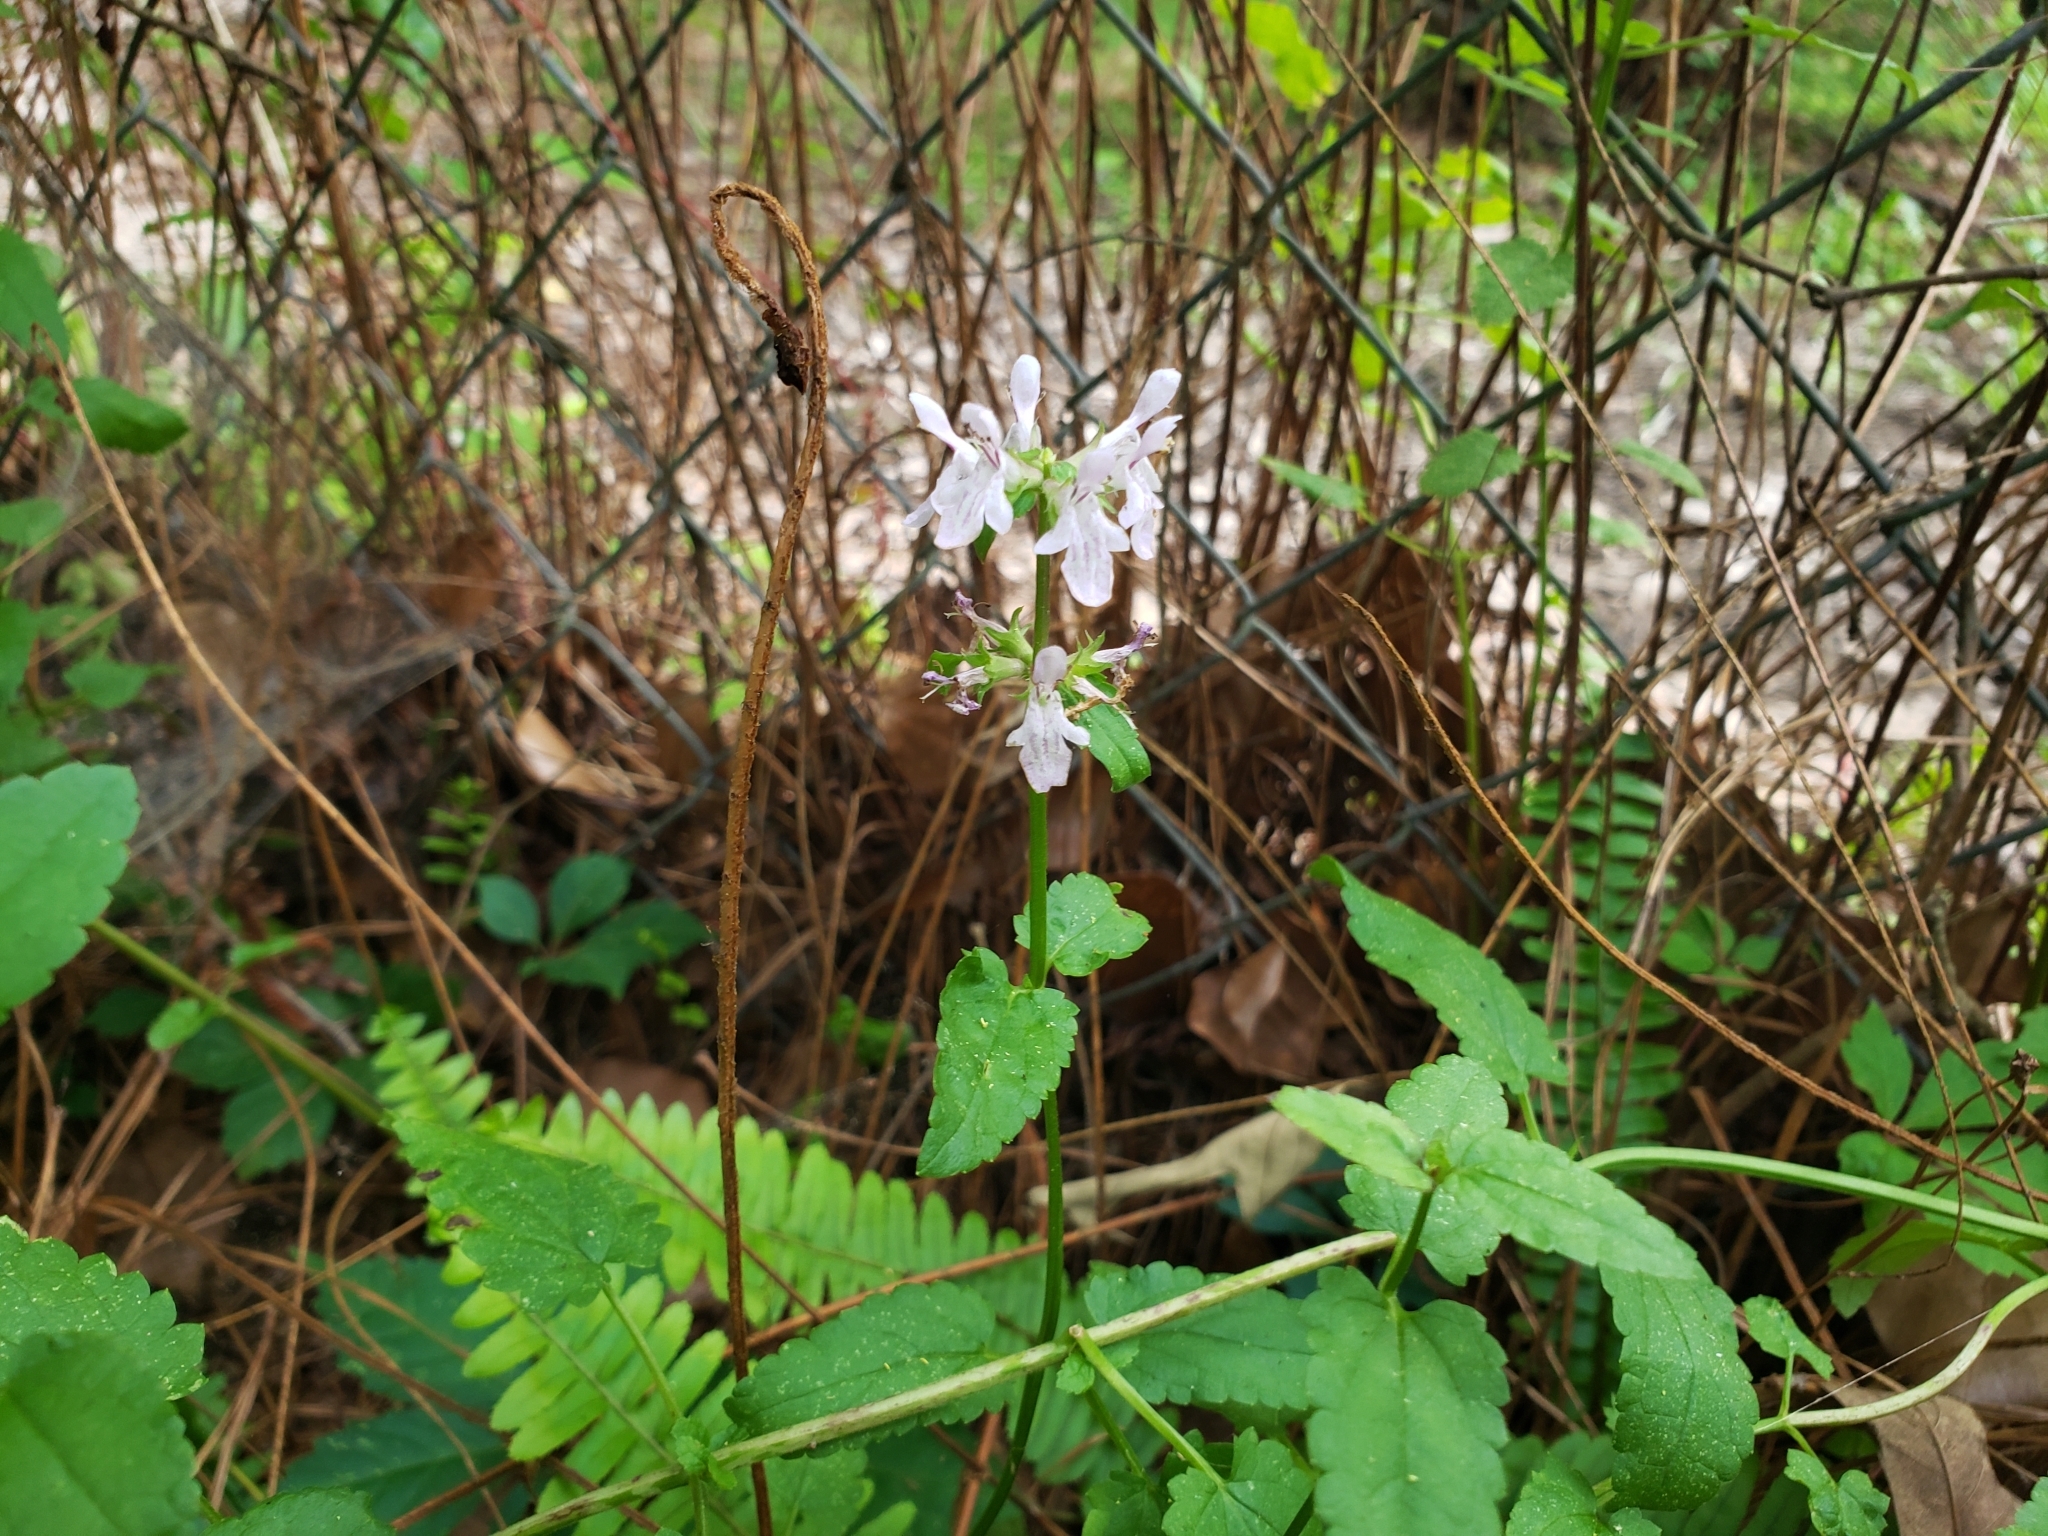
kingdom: Plantae
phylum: Tracheophyta
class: Magnoliopsida
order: Lamiales
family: Lamiaceae
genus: Stachys
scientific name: Stachys floridana
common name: Florida betony
